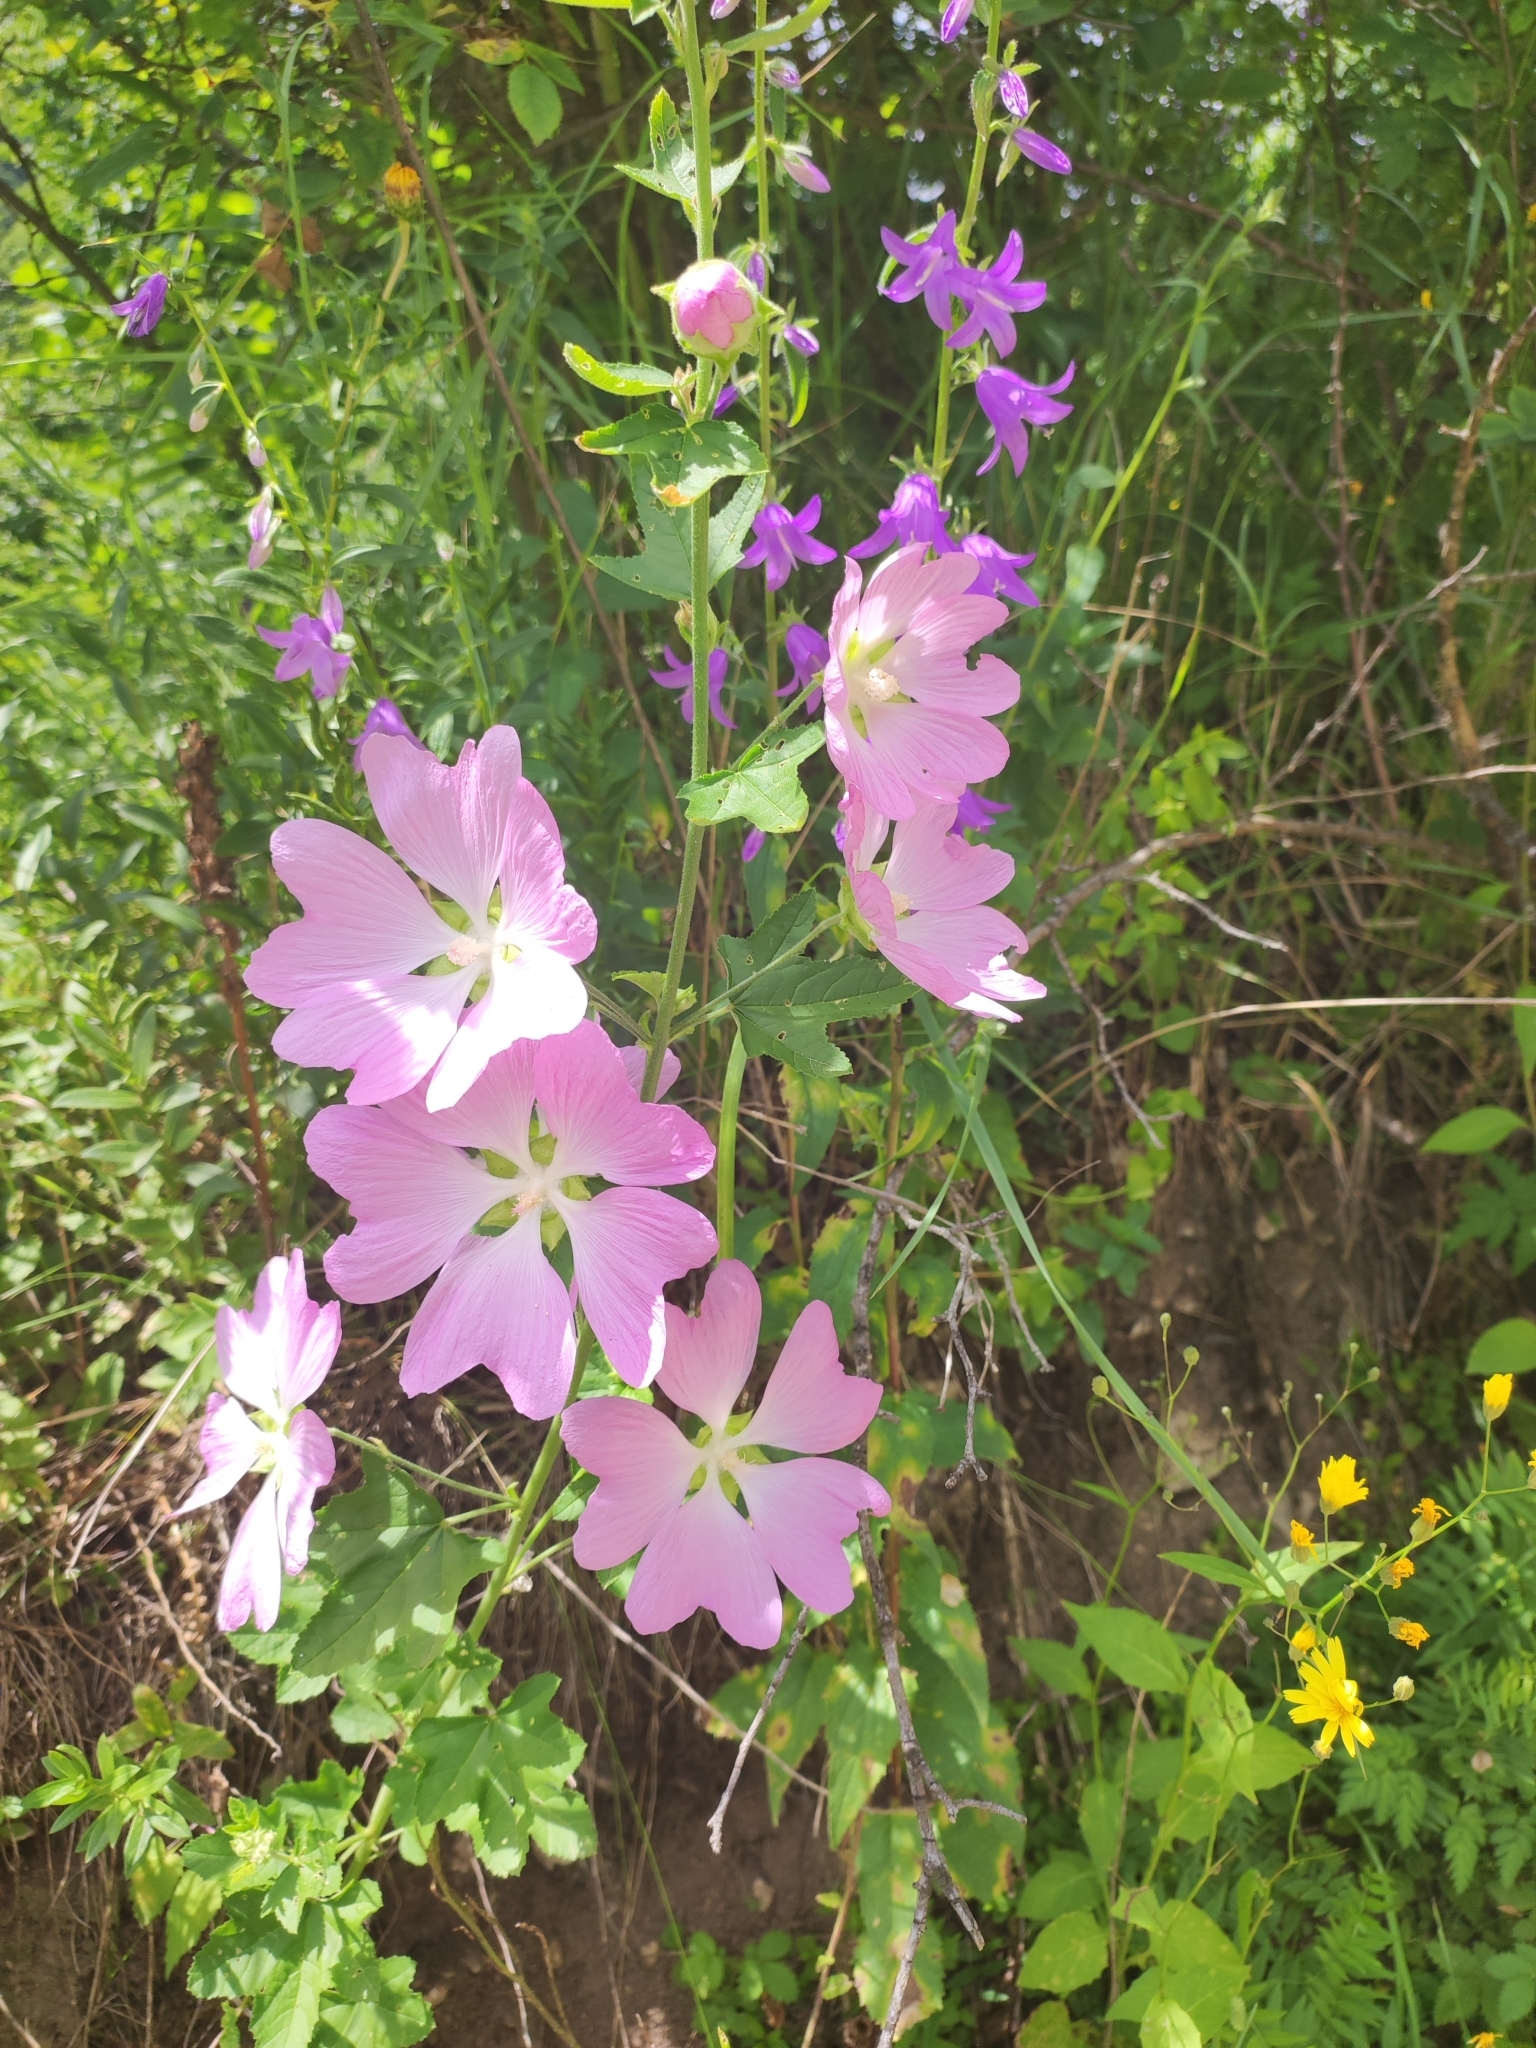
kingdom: Plantae
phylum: Tracheophyta
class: Magnoliopsida
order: Malvales
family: Malvaceae
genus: Malva
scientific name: Malva thuringiaca
